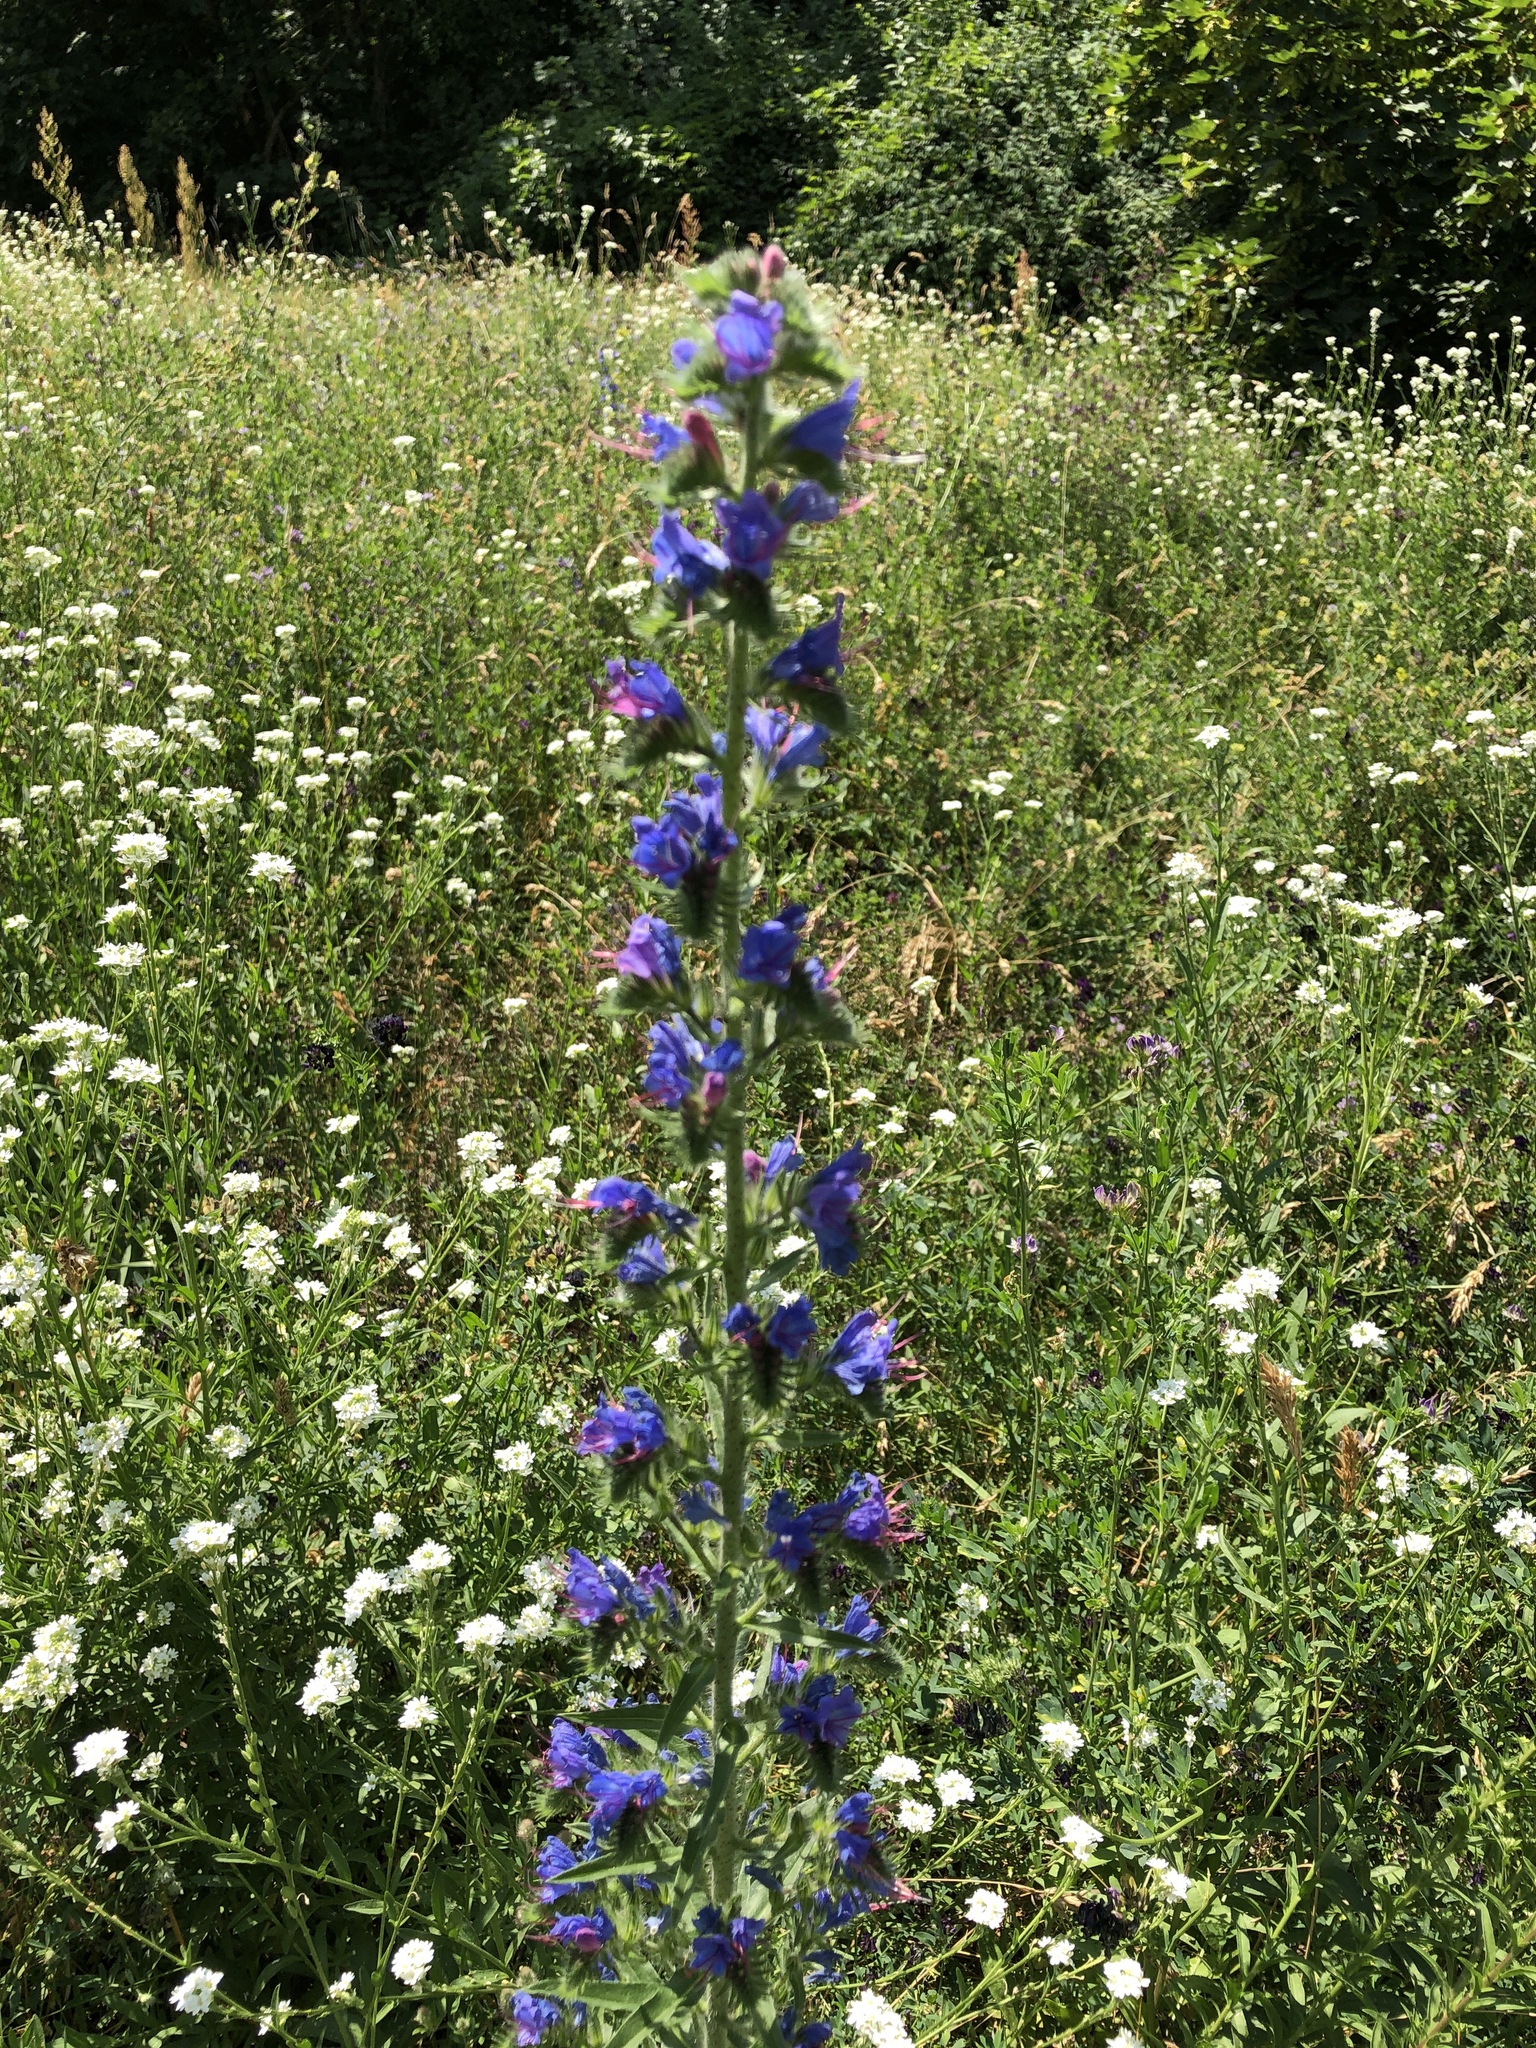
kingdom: Plantae
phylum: Tracheophyta
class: Magnoliopsida
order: Boraginales
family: Boraginaceae
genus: Echium
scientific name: Echium vulgare
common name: Common viper's bugloss
